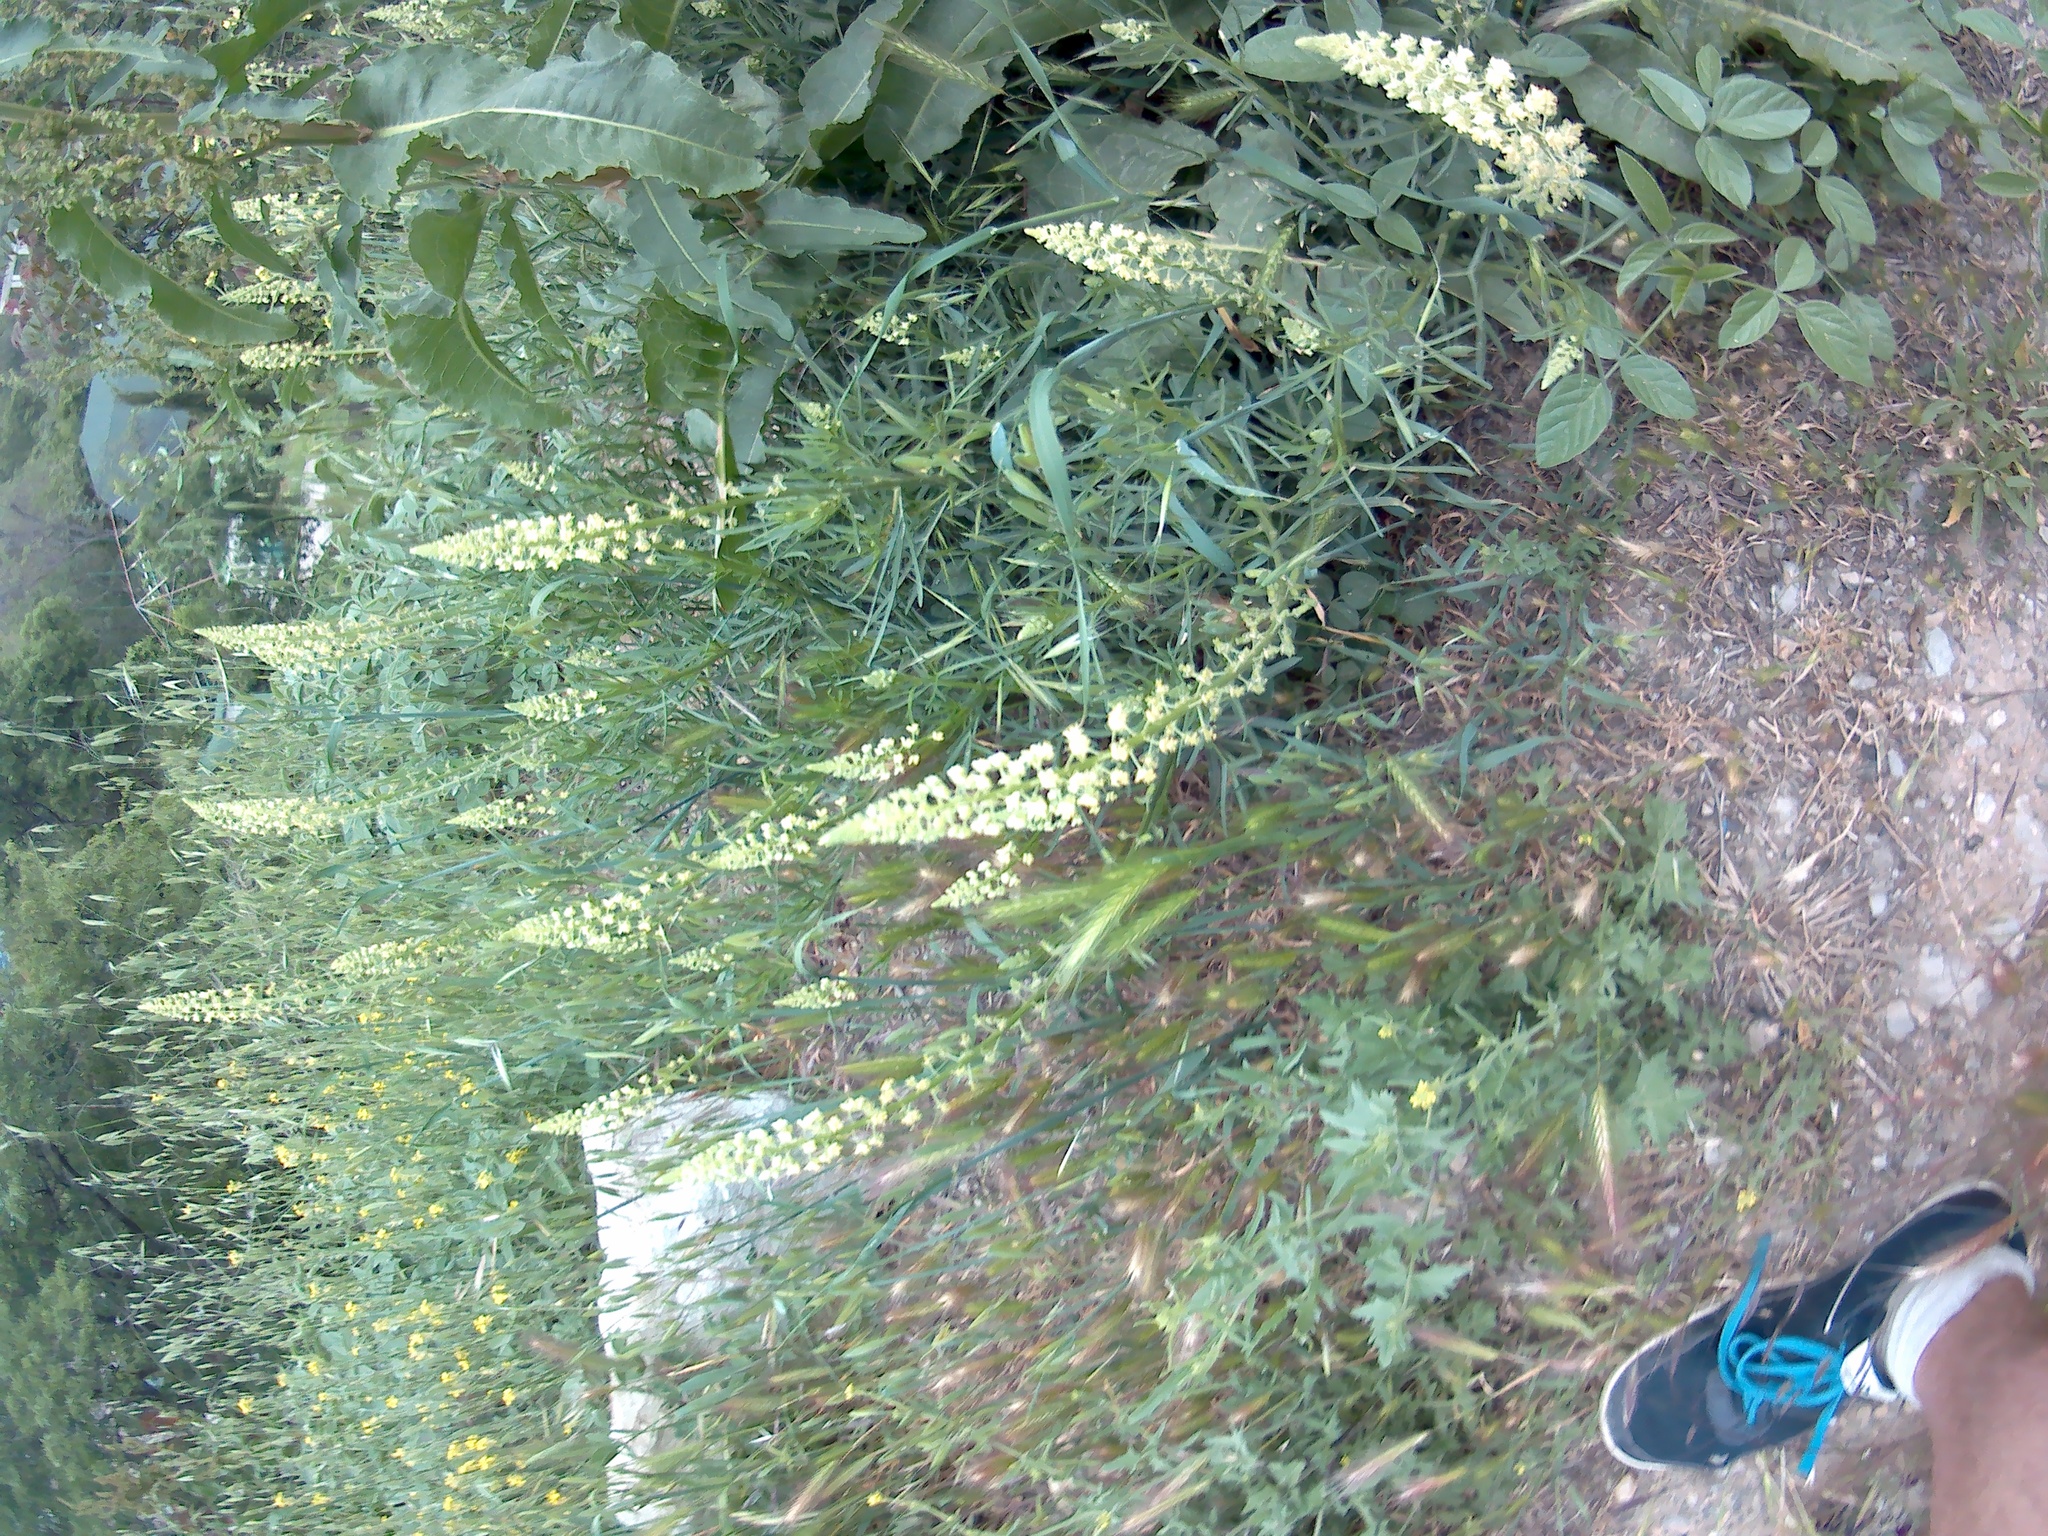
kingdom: Plantae
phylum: Tracheophyta
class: Magnoliopsida
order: Brassicales
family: Resedaceae
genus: Reseda
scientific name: Reseda lutea
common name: Wild mignonette
